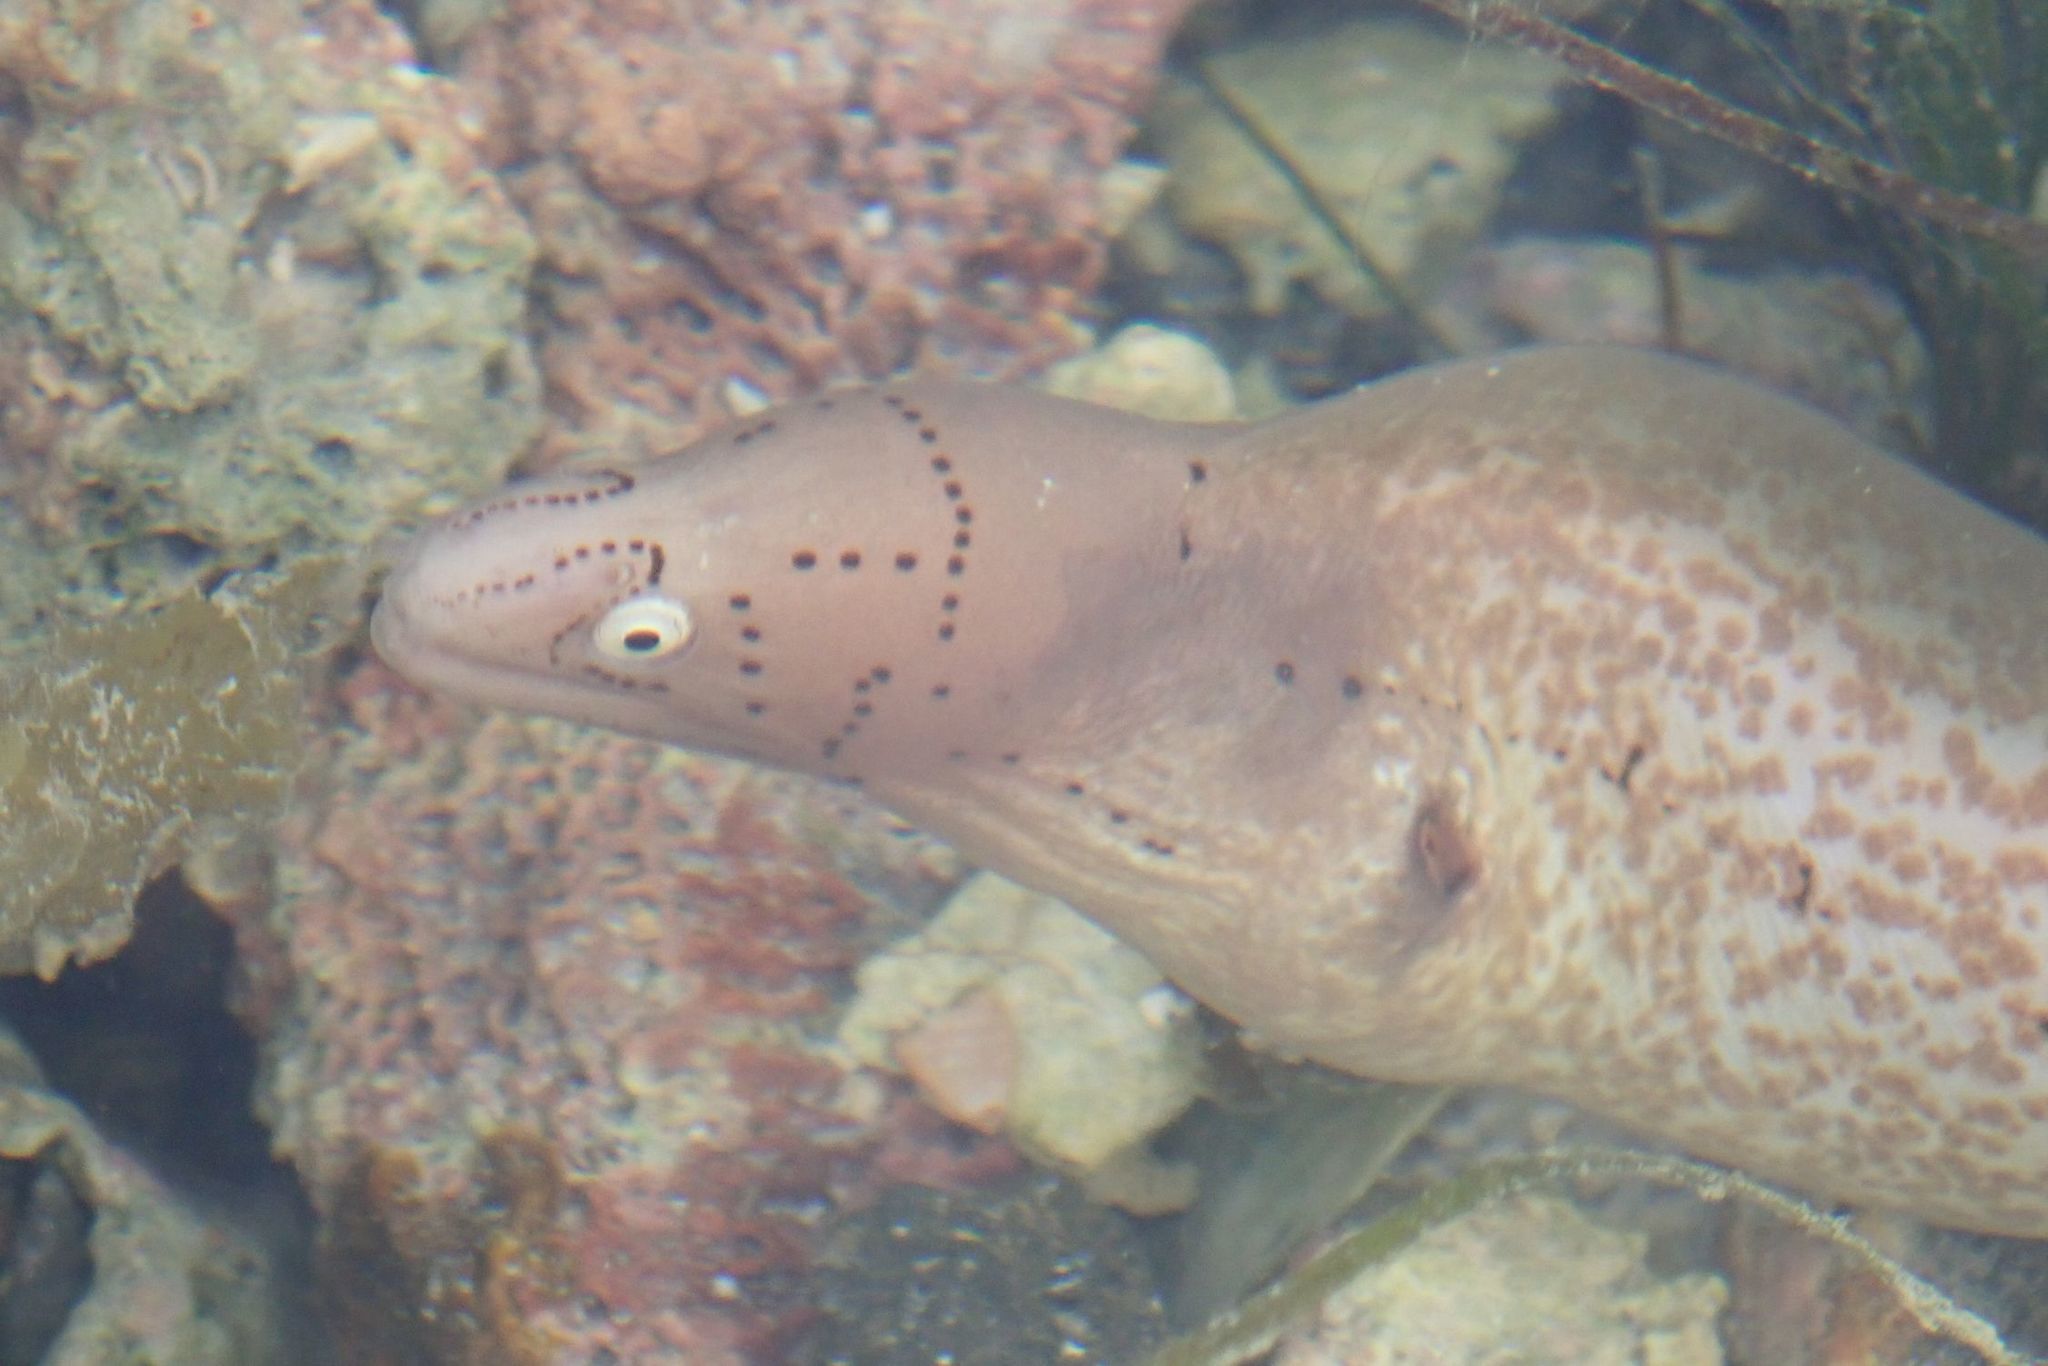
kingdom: Animalia
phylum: Chordata
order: Anguilliformes
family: Muraenidae
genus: Gymnothorax
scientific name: Gymnothorax griseus
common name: Geometric moray
